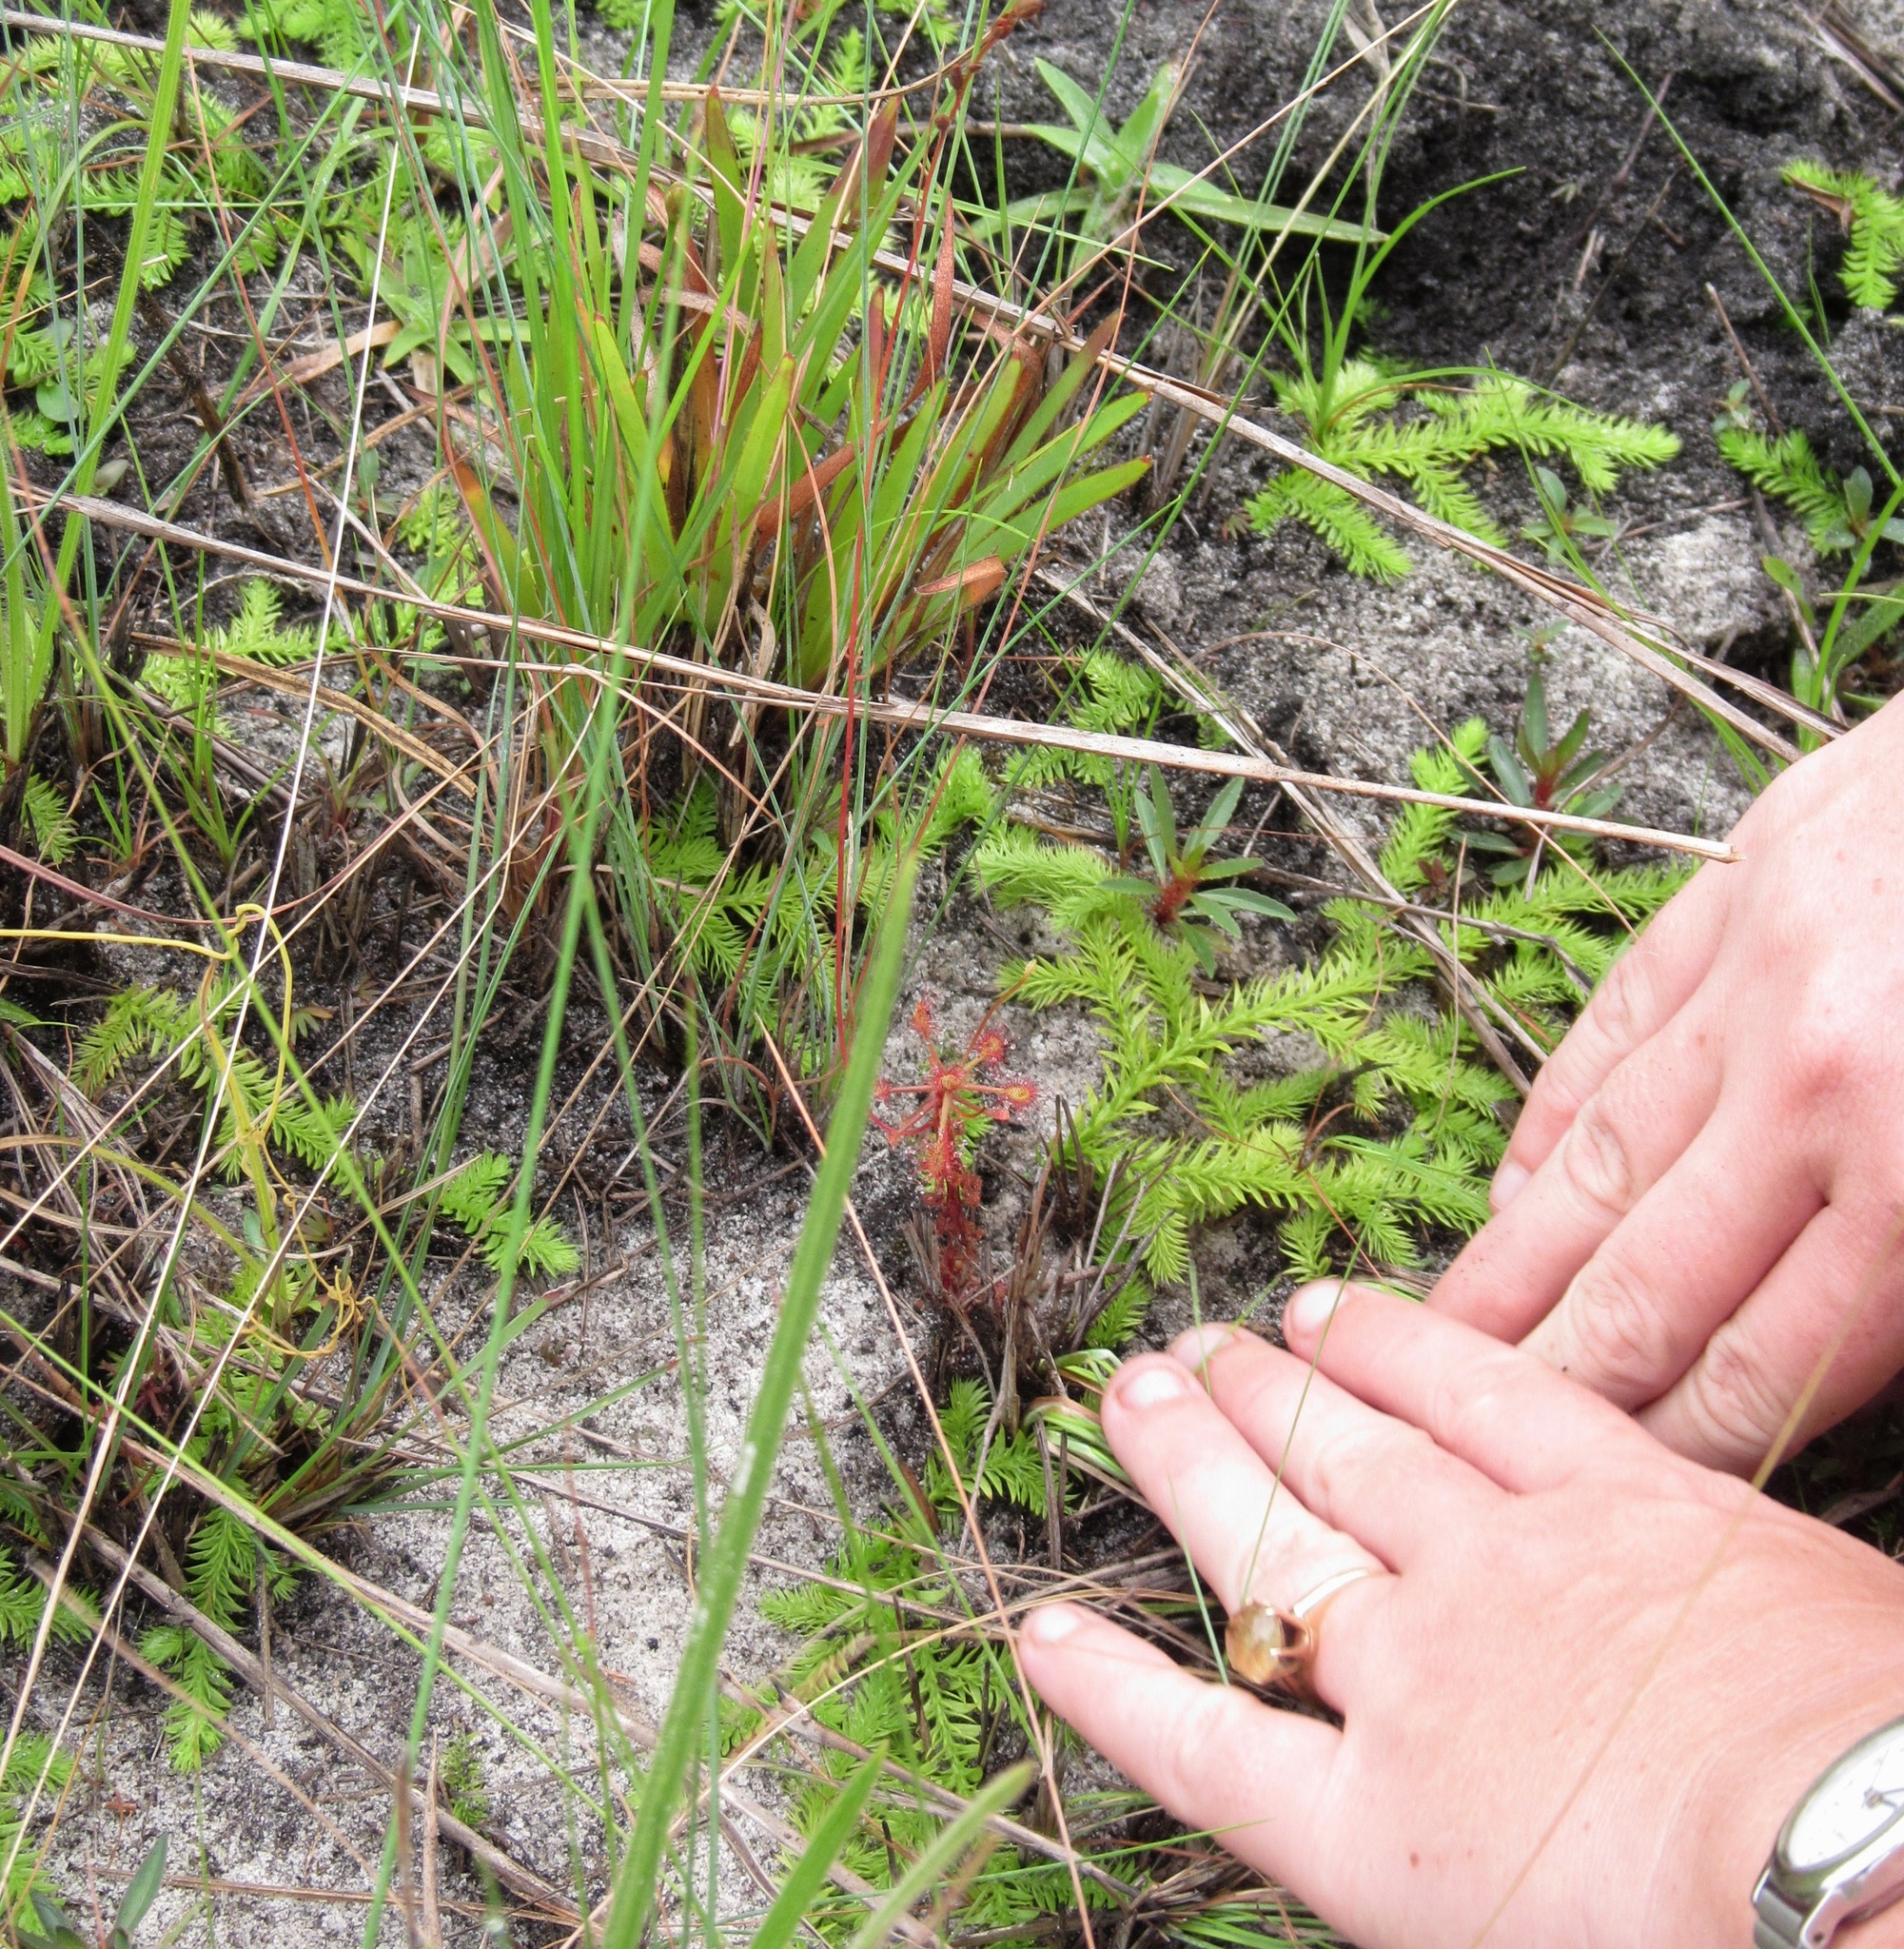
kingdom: Plantae
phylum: Tracheophyta
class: Magnoliopsida
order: Caryophyllales
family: Droseraceae
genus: Drosera
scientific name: Drosera madagascariensis
